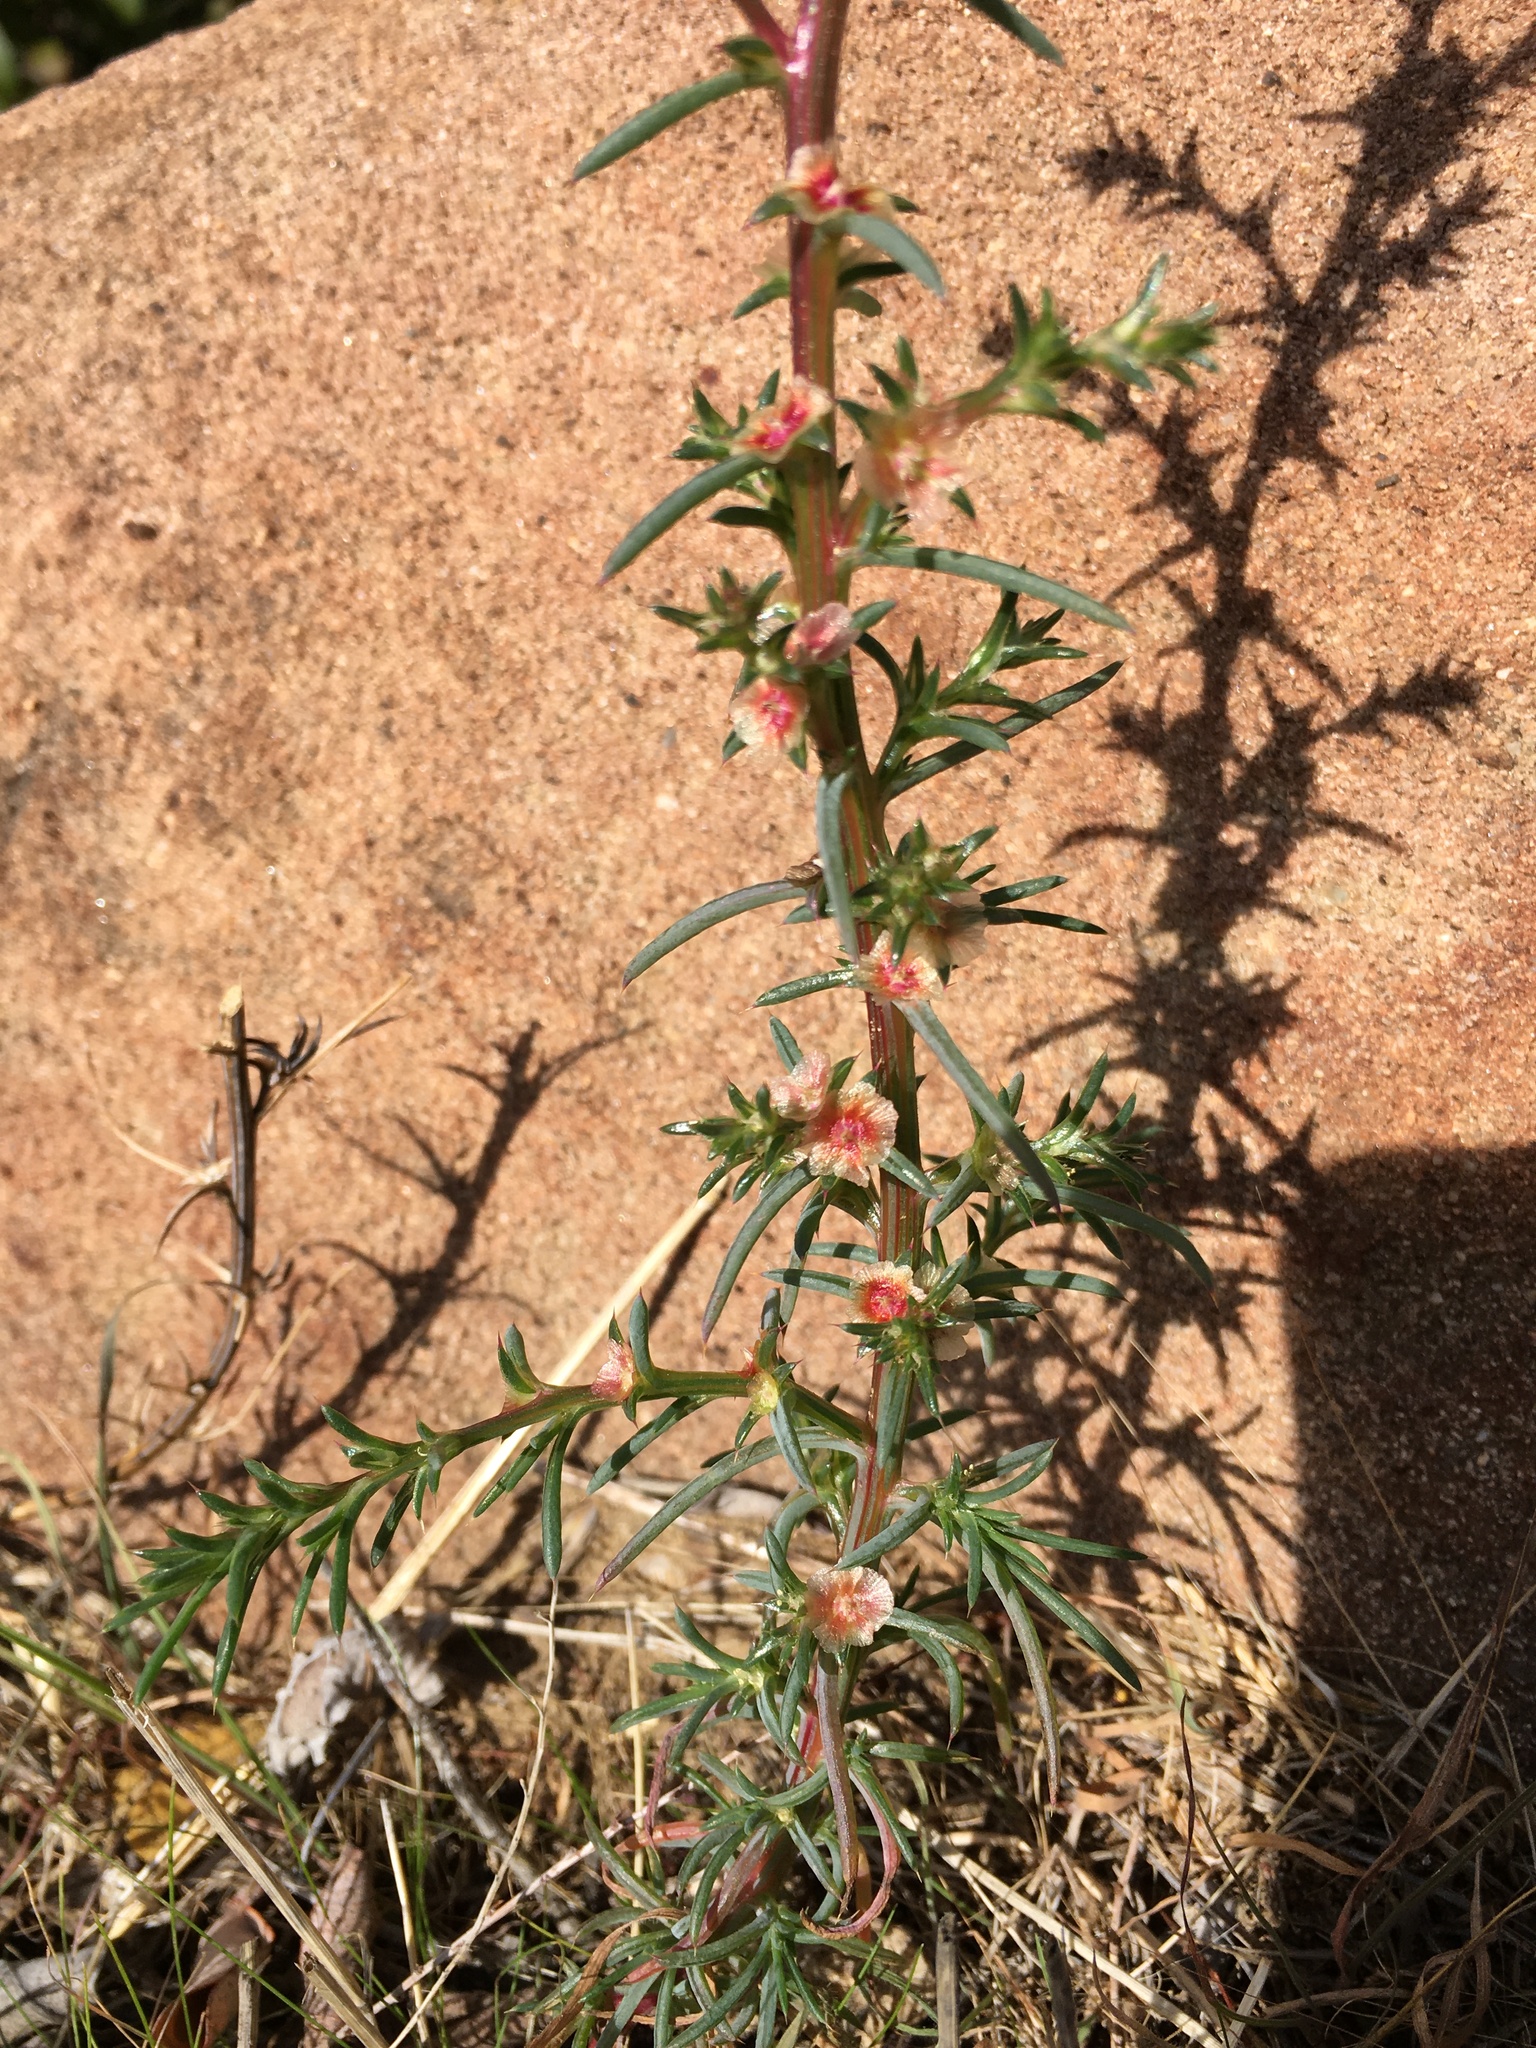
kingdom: Plantae
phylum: Tracheophyta
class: Magnoliopsida
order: Caryophyllales
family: Amaranthaceae
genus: Salsola
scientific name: Salsola australis
